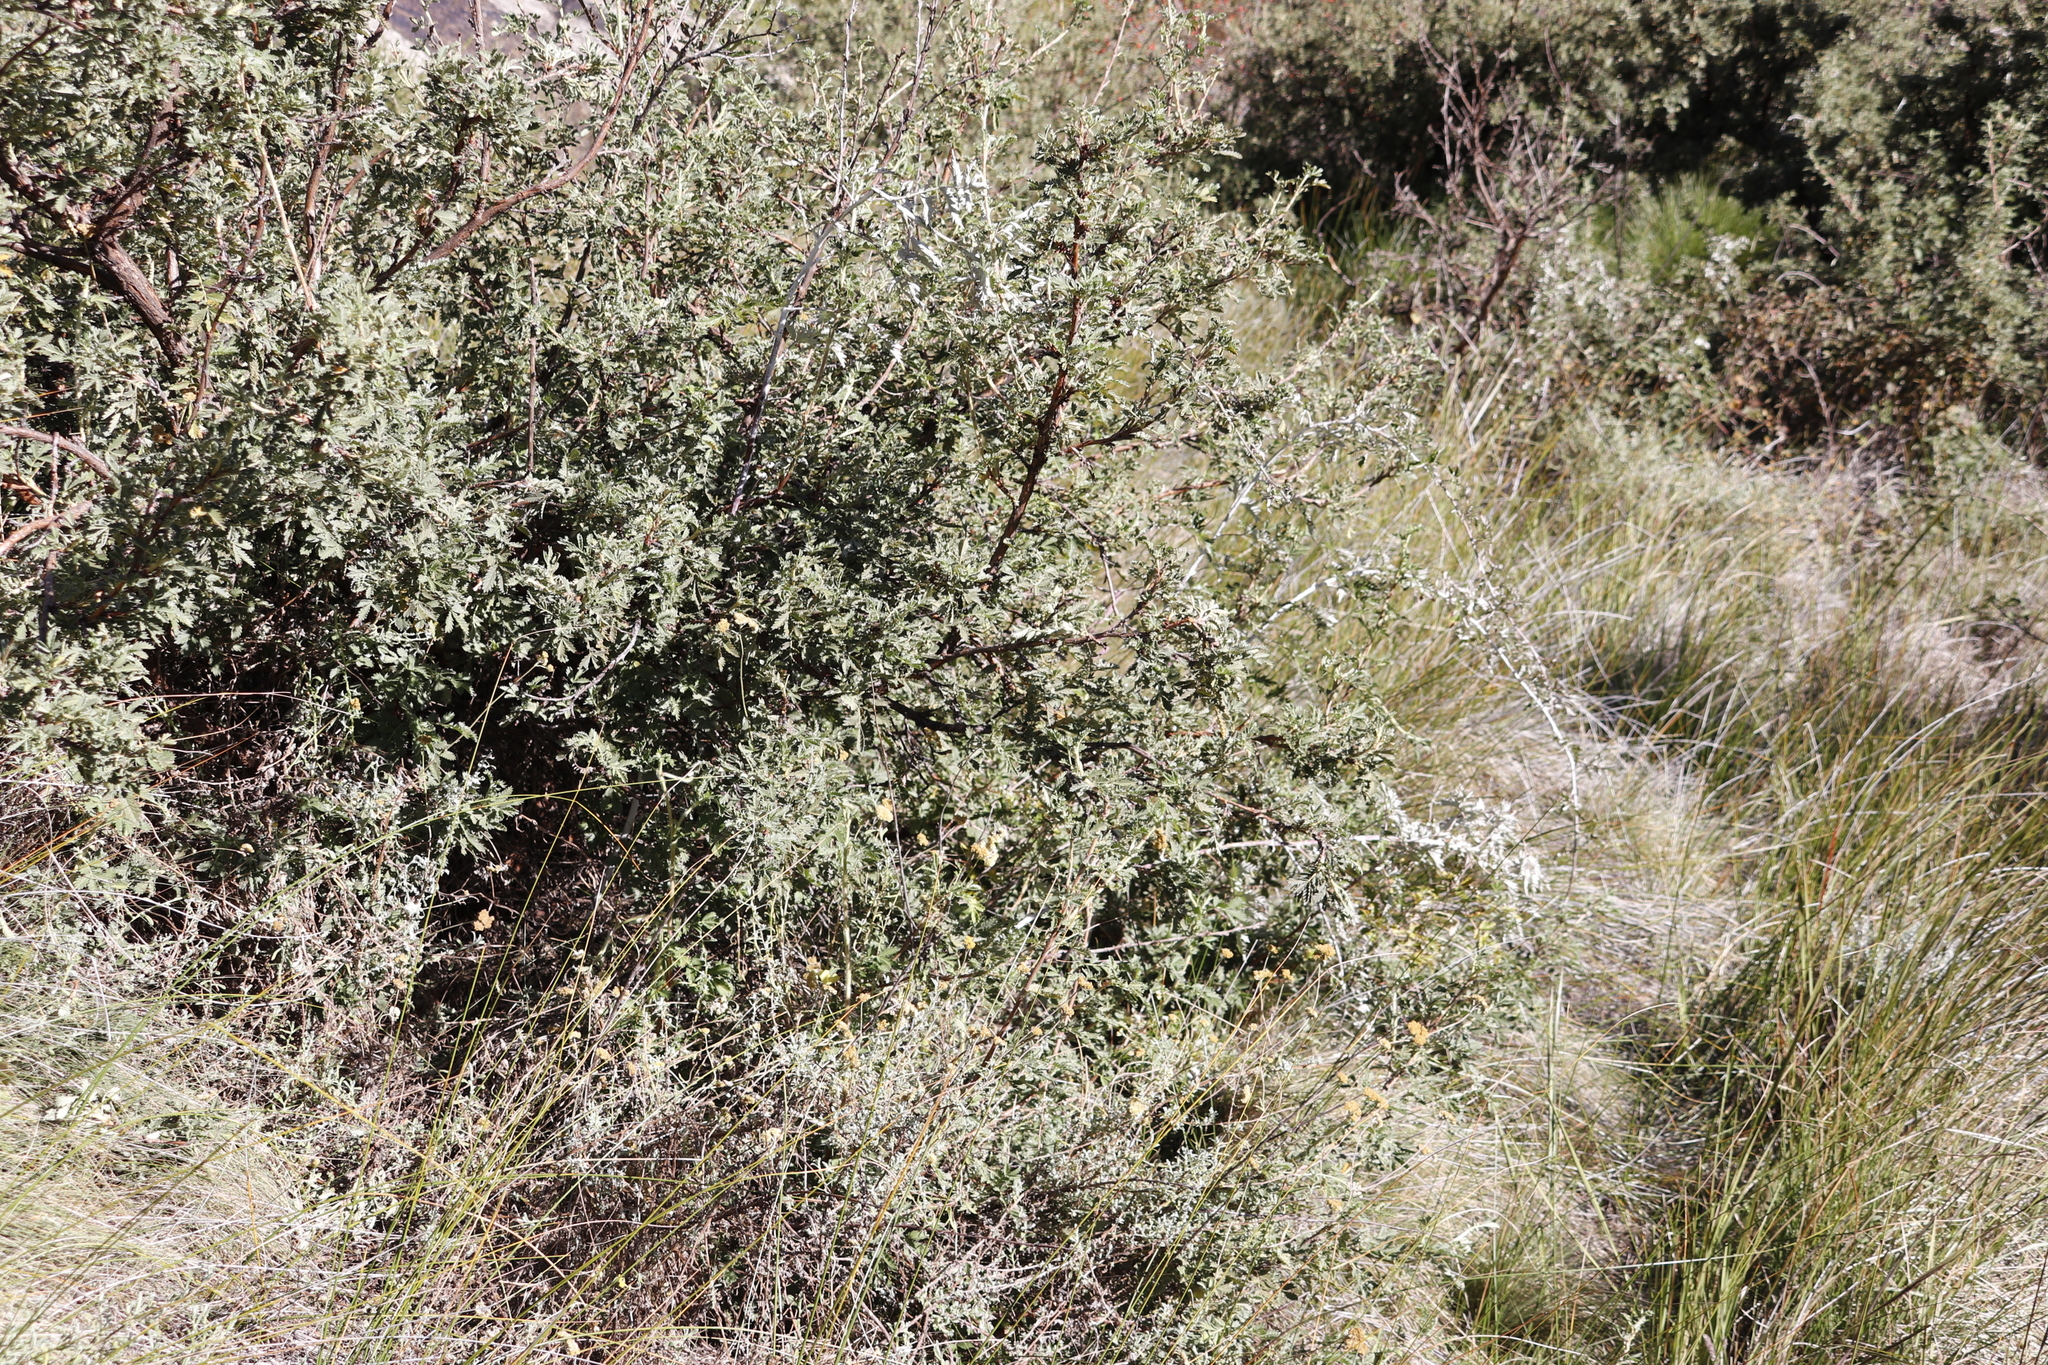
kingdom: Plantae
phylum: Tracheophyta
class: Magnoliopsida
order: Rosales
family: Rosaceae
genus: Rubus
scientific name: Rubus ludwigii
